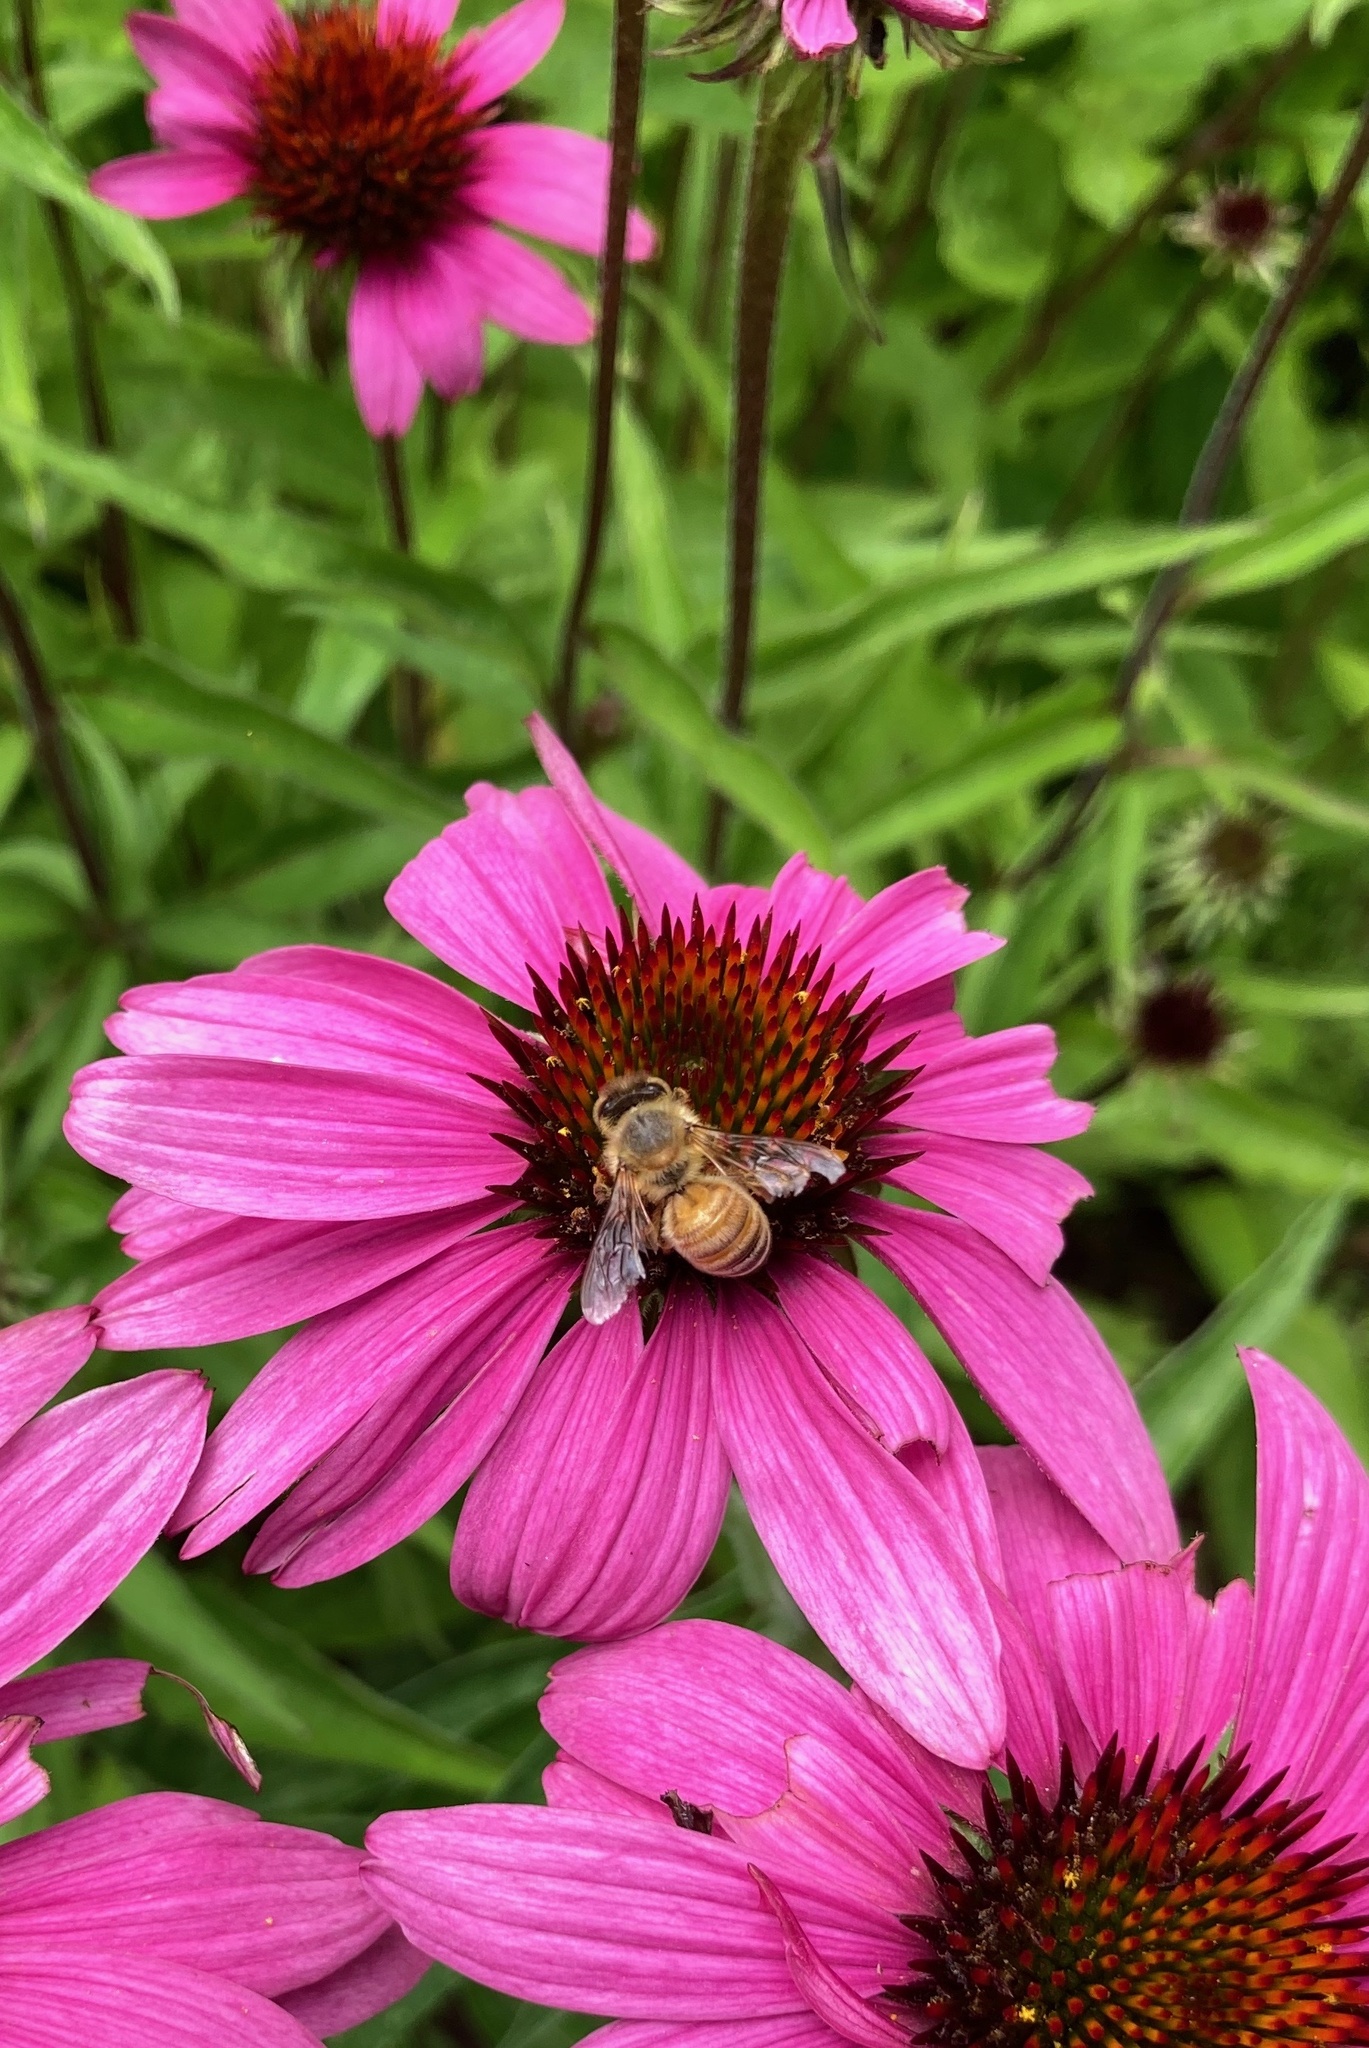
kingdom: Animalia
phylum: Arthropoda
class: Insecta
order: Hymenoptera
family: Apidae
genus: Apis
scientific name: Apis mellifera
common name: Honey bee
